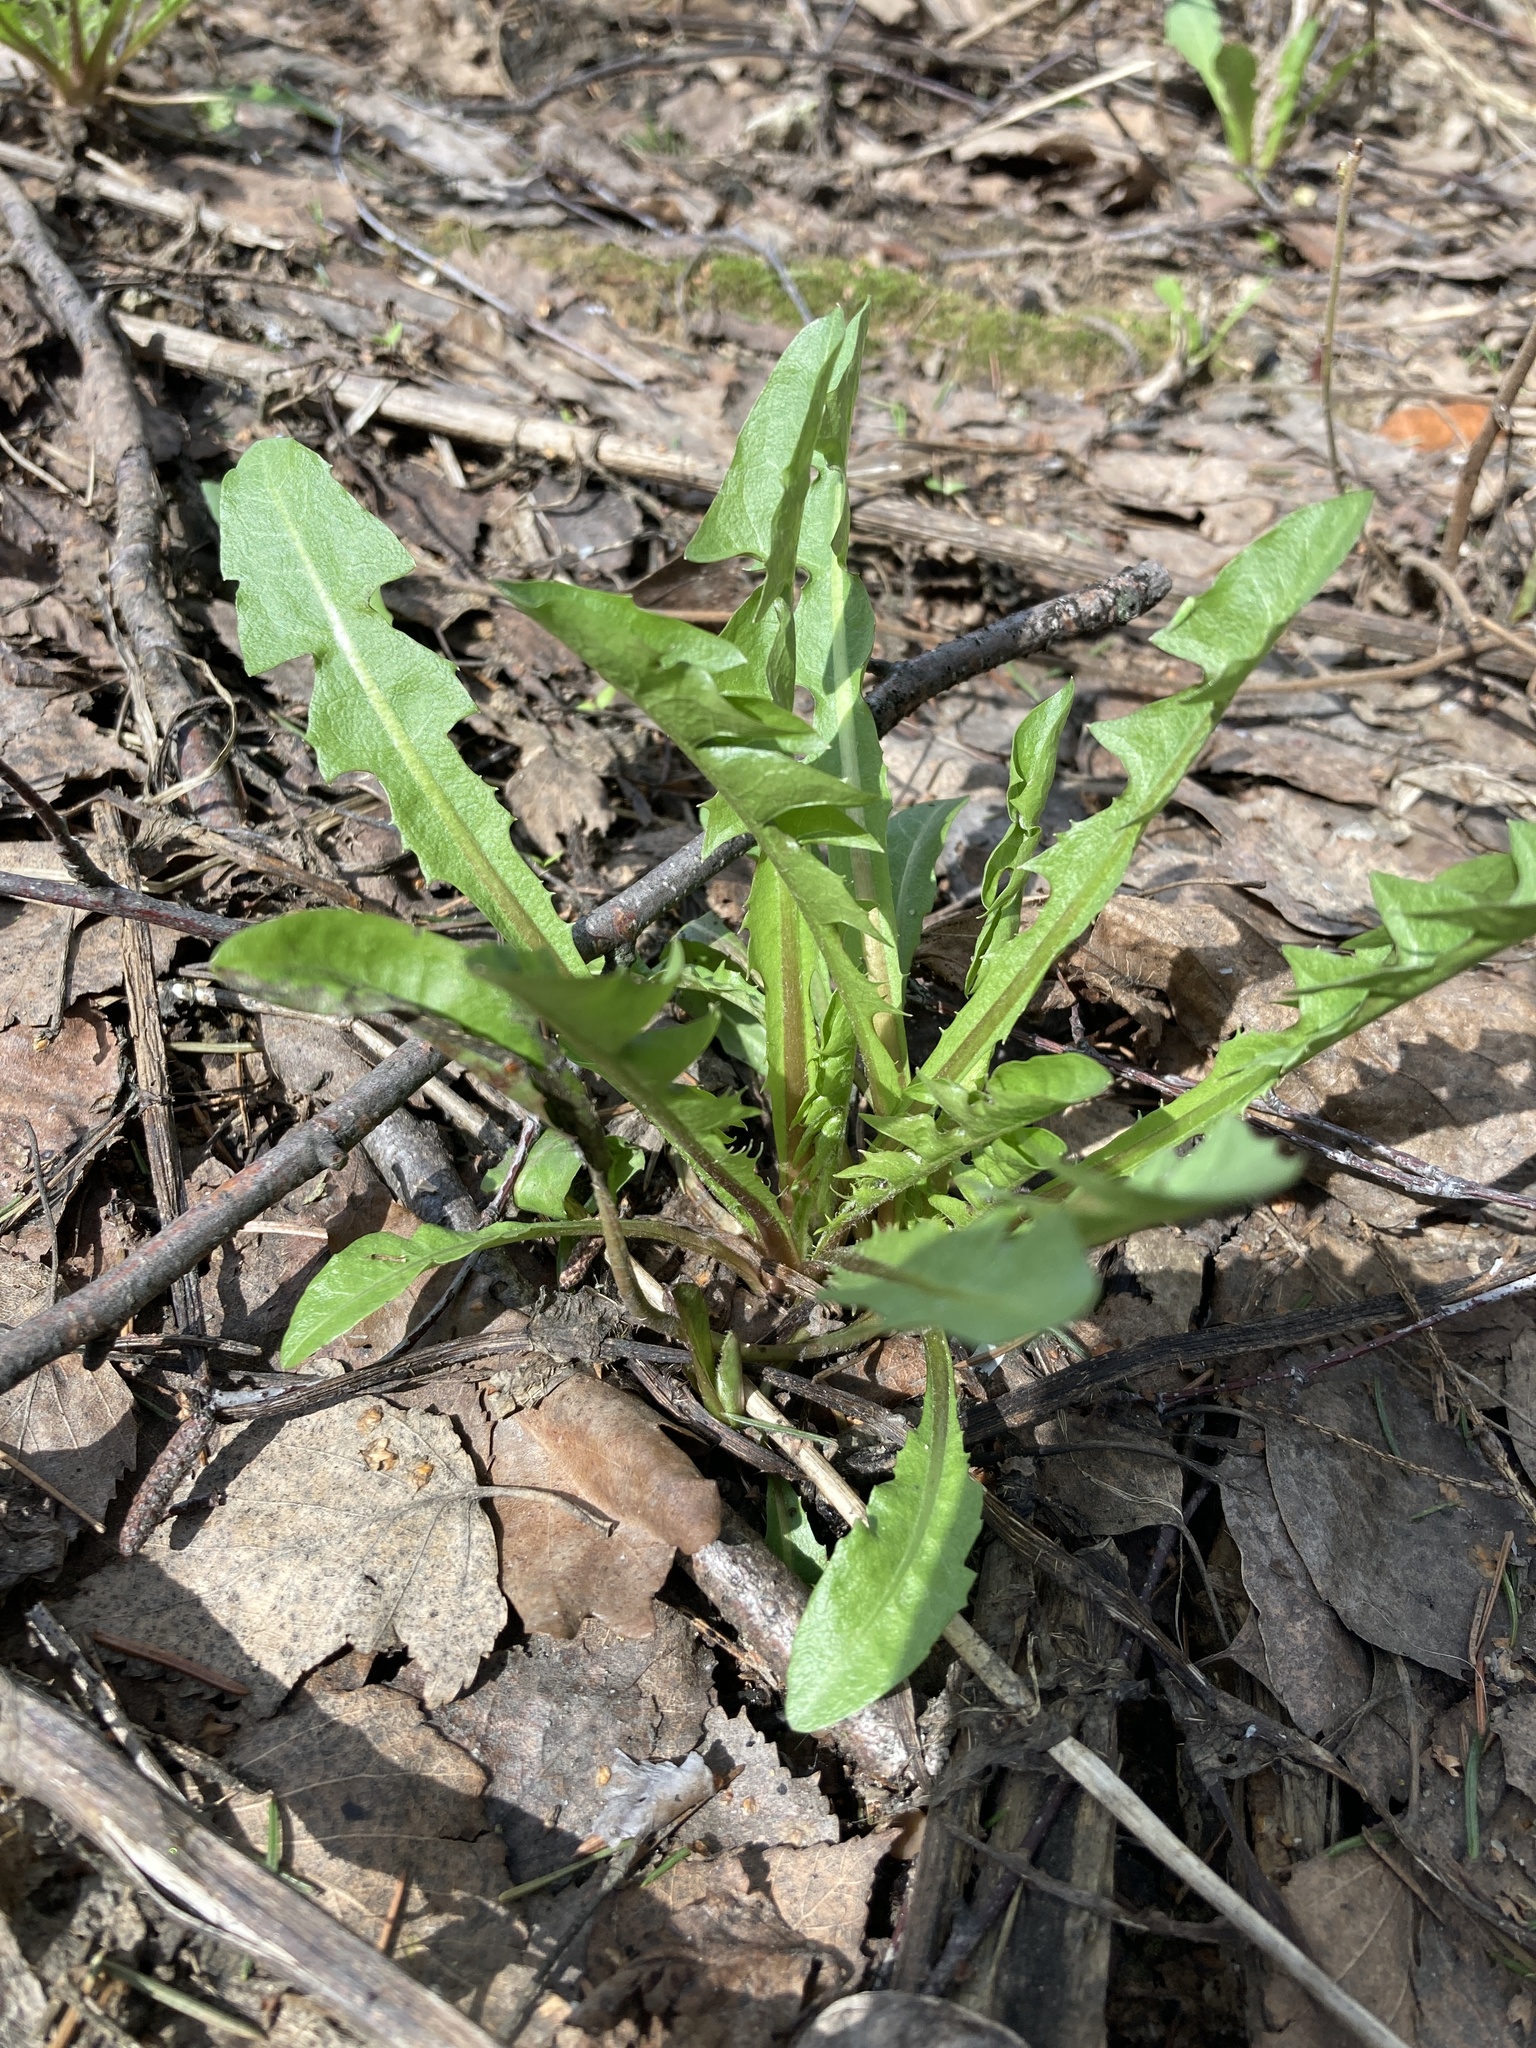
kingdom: Plantae
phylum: Tracheophyta
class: Magnoliopsida
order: Asterales
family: Asteraceae
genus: Taraxacum
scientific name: Taraxacum officinale
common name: Common dandelion
